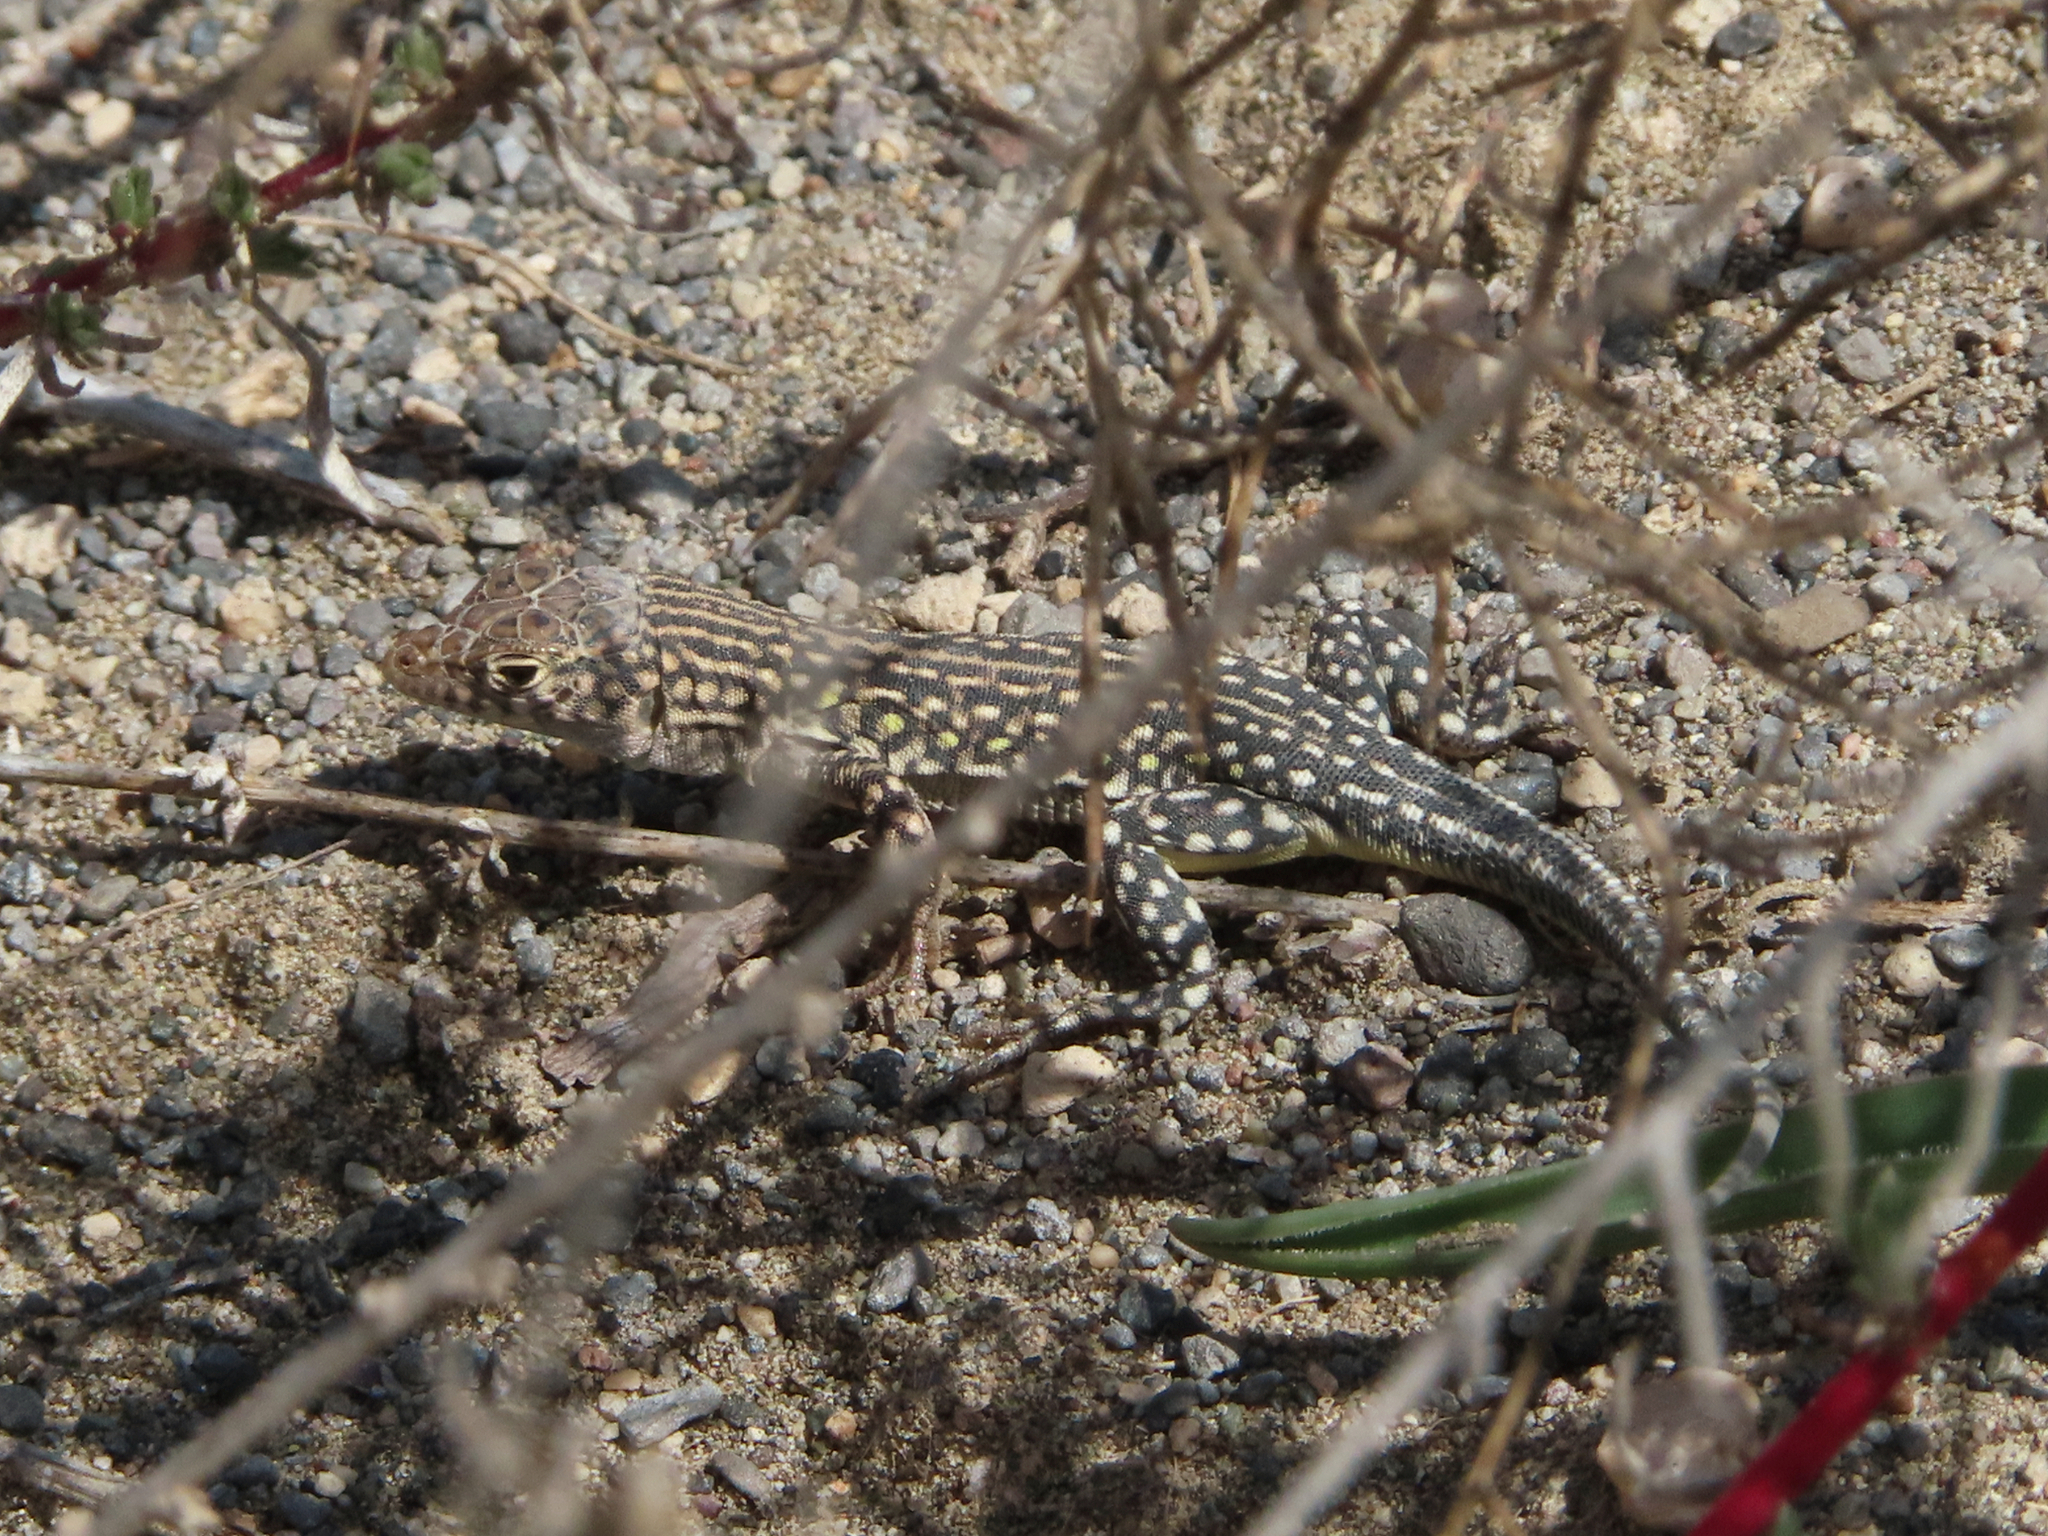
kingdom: Animalia
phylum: Chordata
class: Squamata
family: Lacertidae
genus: Eremias
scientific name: Eremias strauchi
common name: Strauch's racerunner
